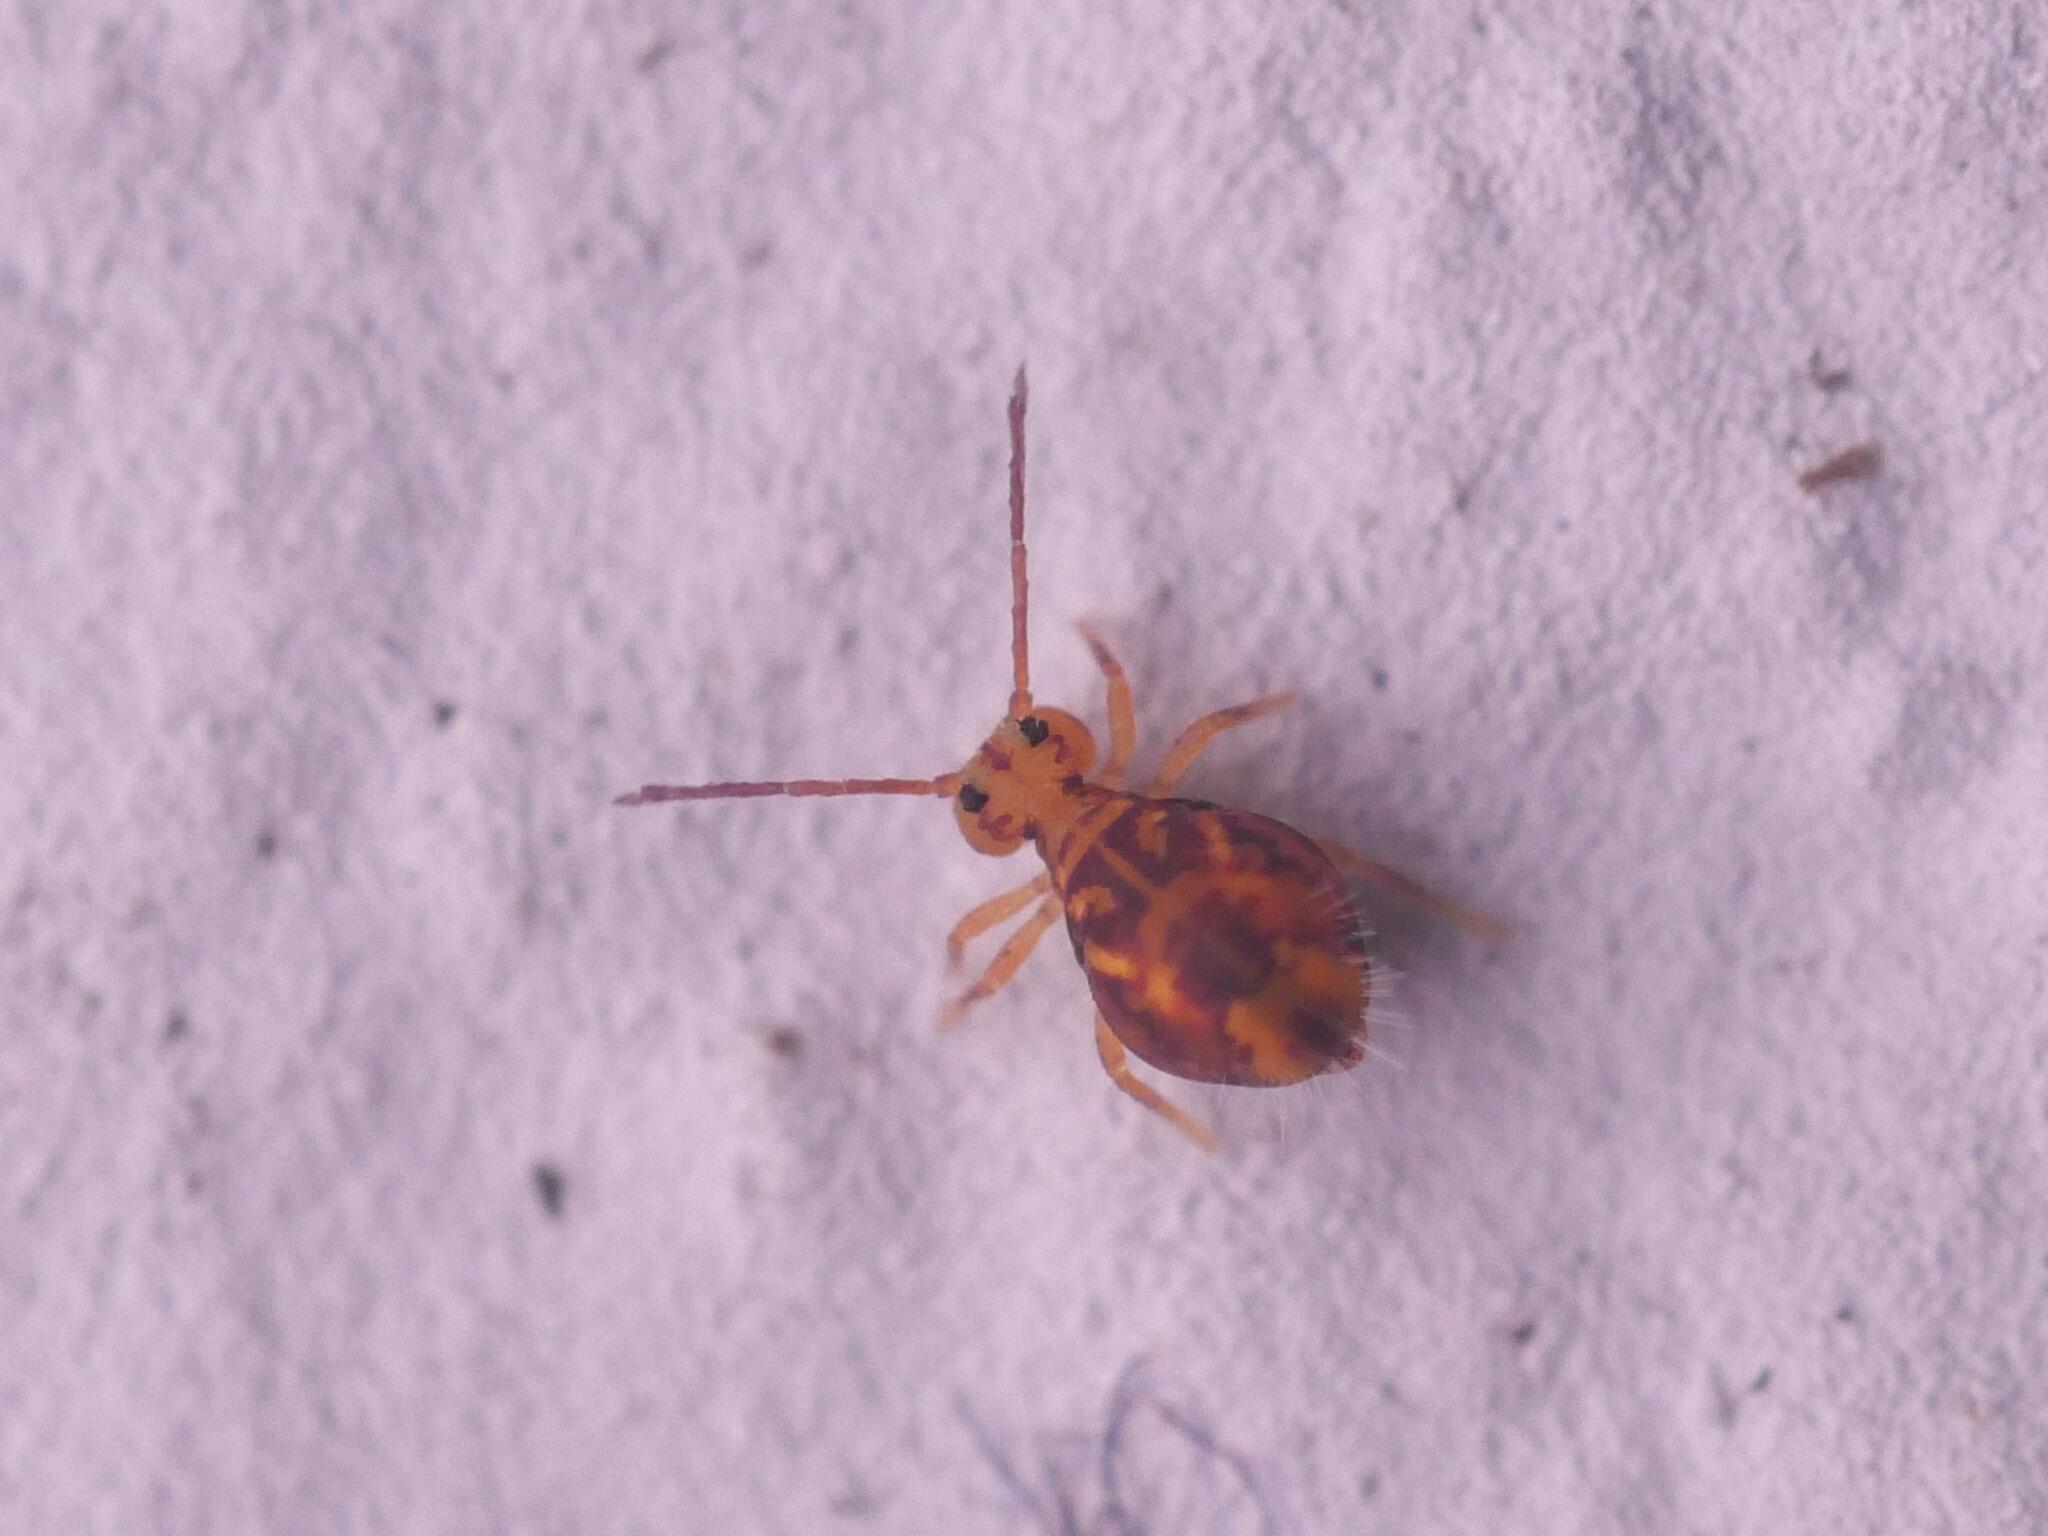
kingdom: Animalia
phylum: Arthropoda
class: Collembola
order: Symphypleona
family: Dicyrtomidae
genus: Dicyrtomina
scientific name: Dicyrtomina ornata
